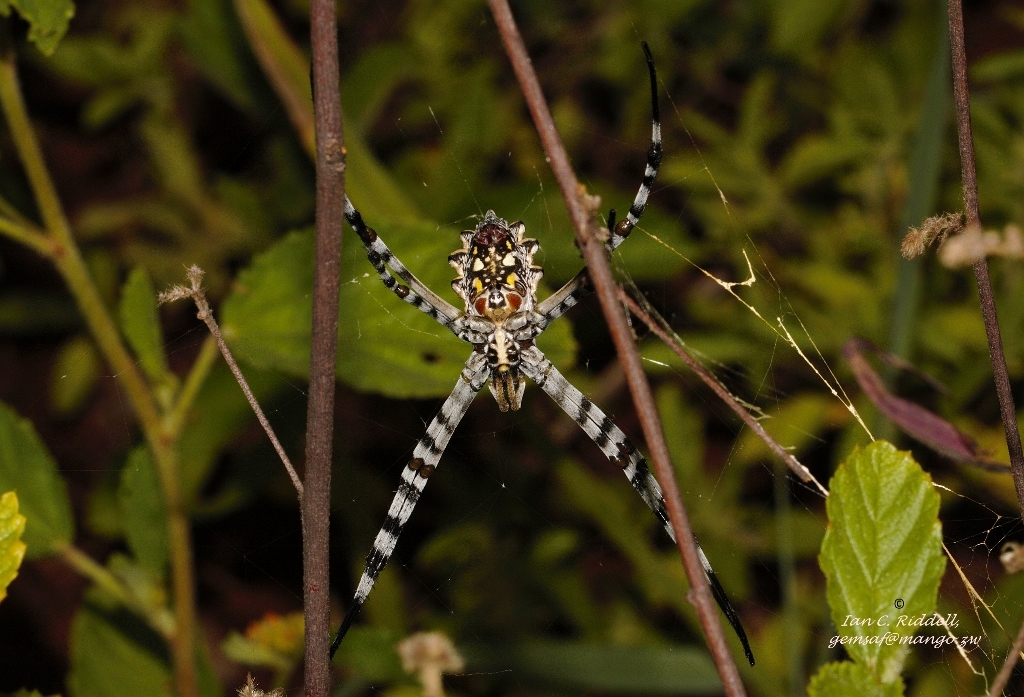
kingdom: Animalia
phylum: Arthropoda
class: Arachnida
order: Araneae
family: Araneidae
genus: Argiope
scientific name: Argiope australis
